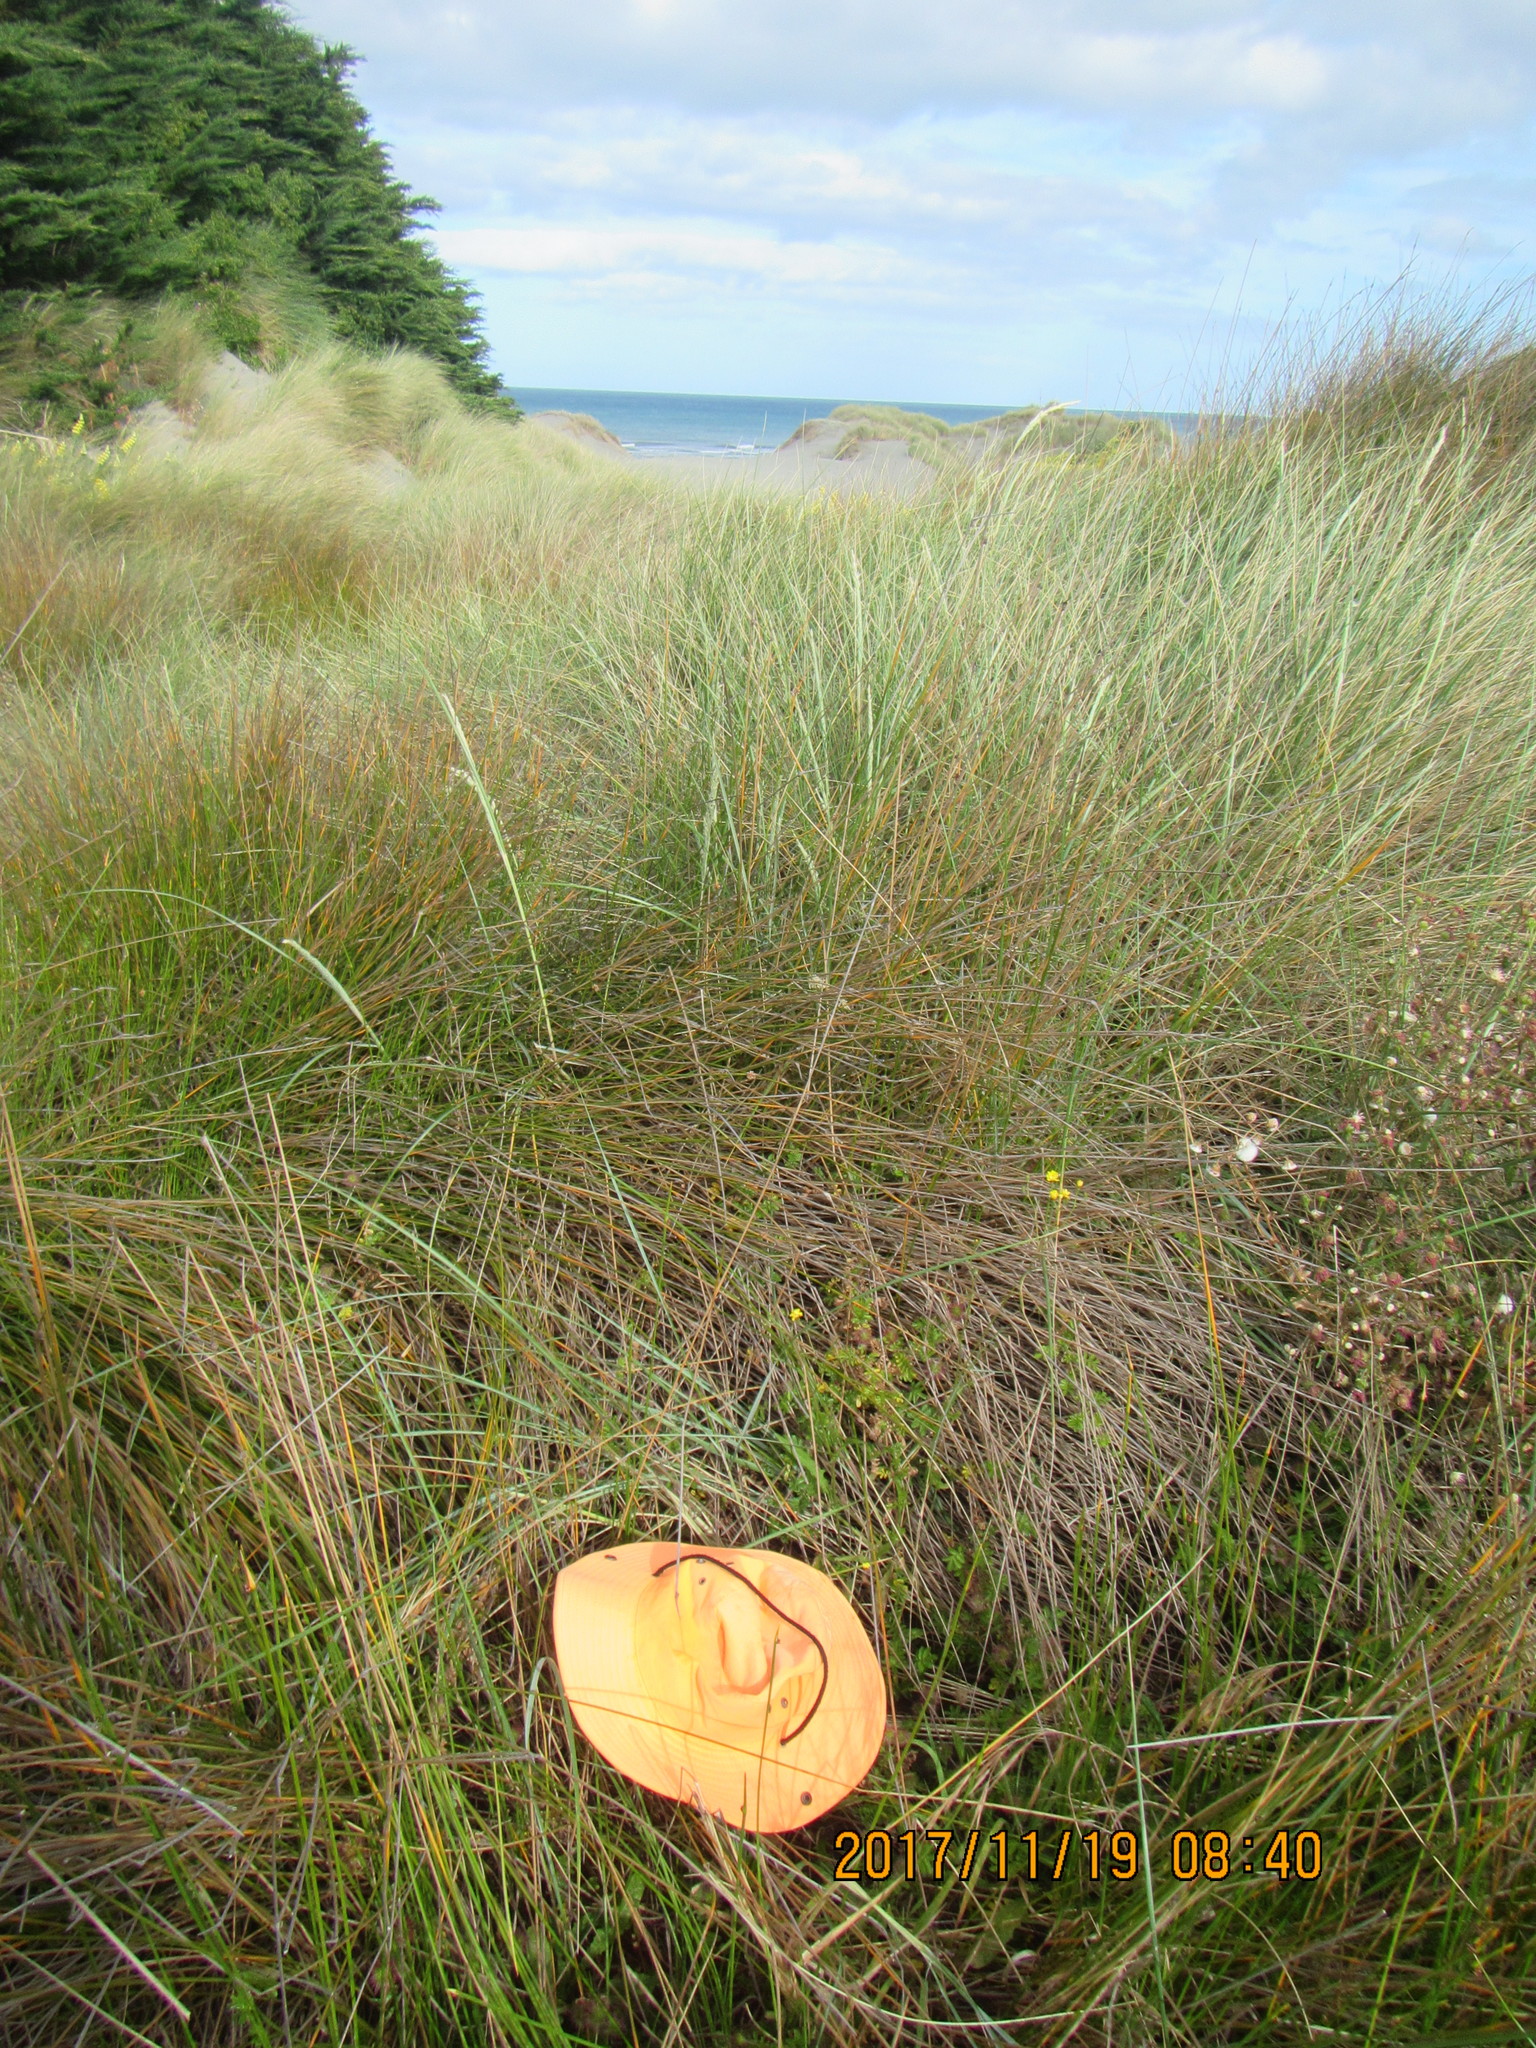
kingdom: Plantae
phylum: Tracheophyta
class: Magnoliopsida
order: Rosales
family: Rosaceae
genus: Acaena
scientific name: Acaena novae-zelandiae
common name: Pirri-pirri-bur
